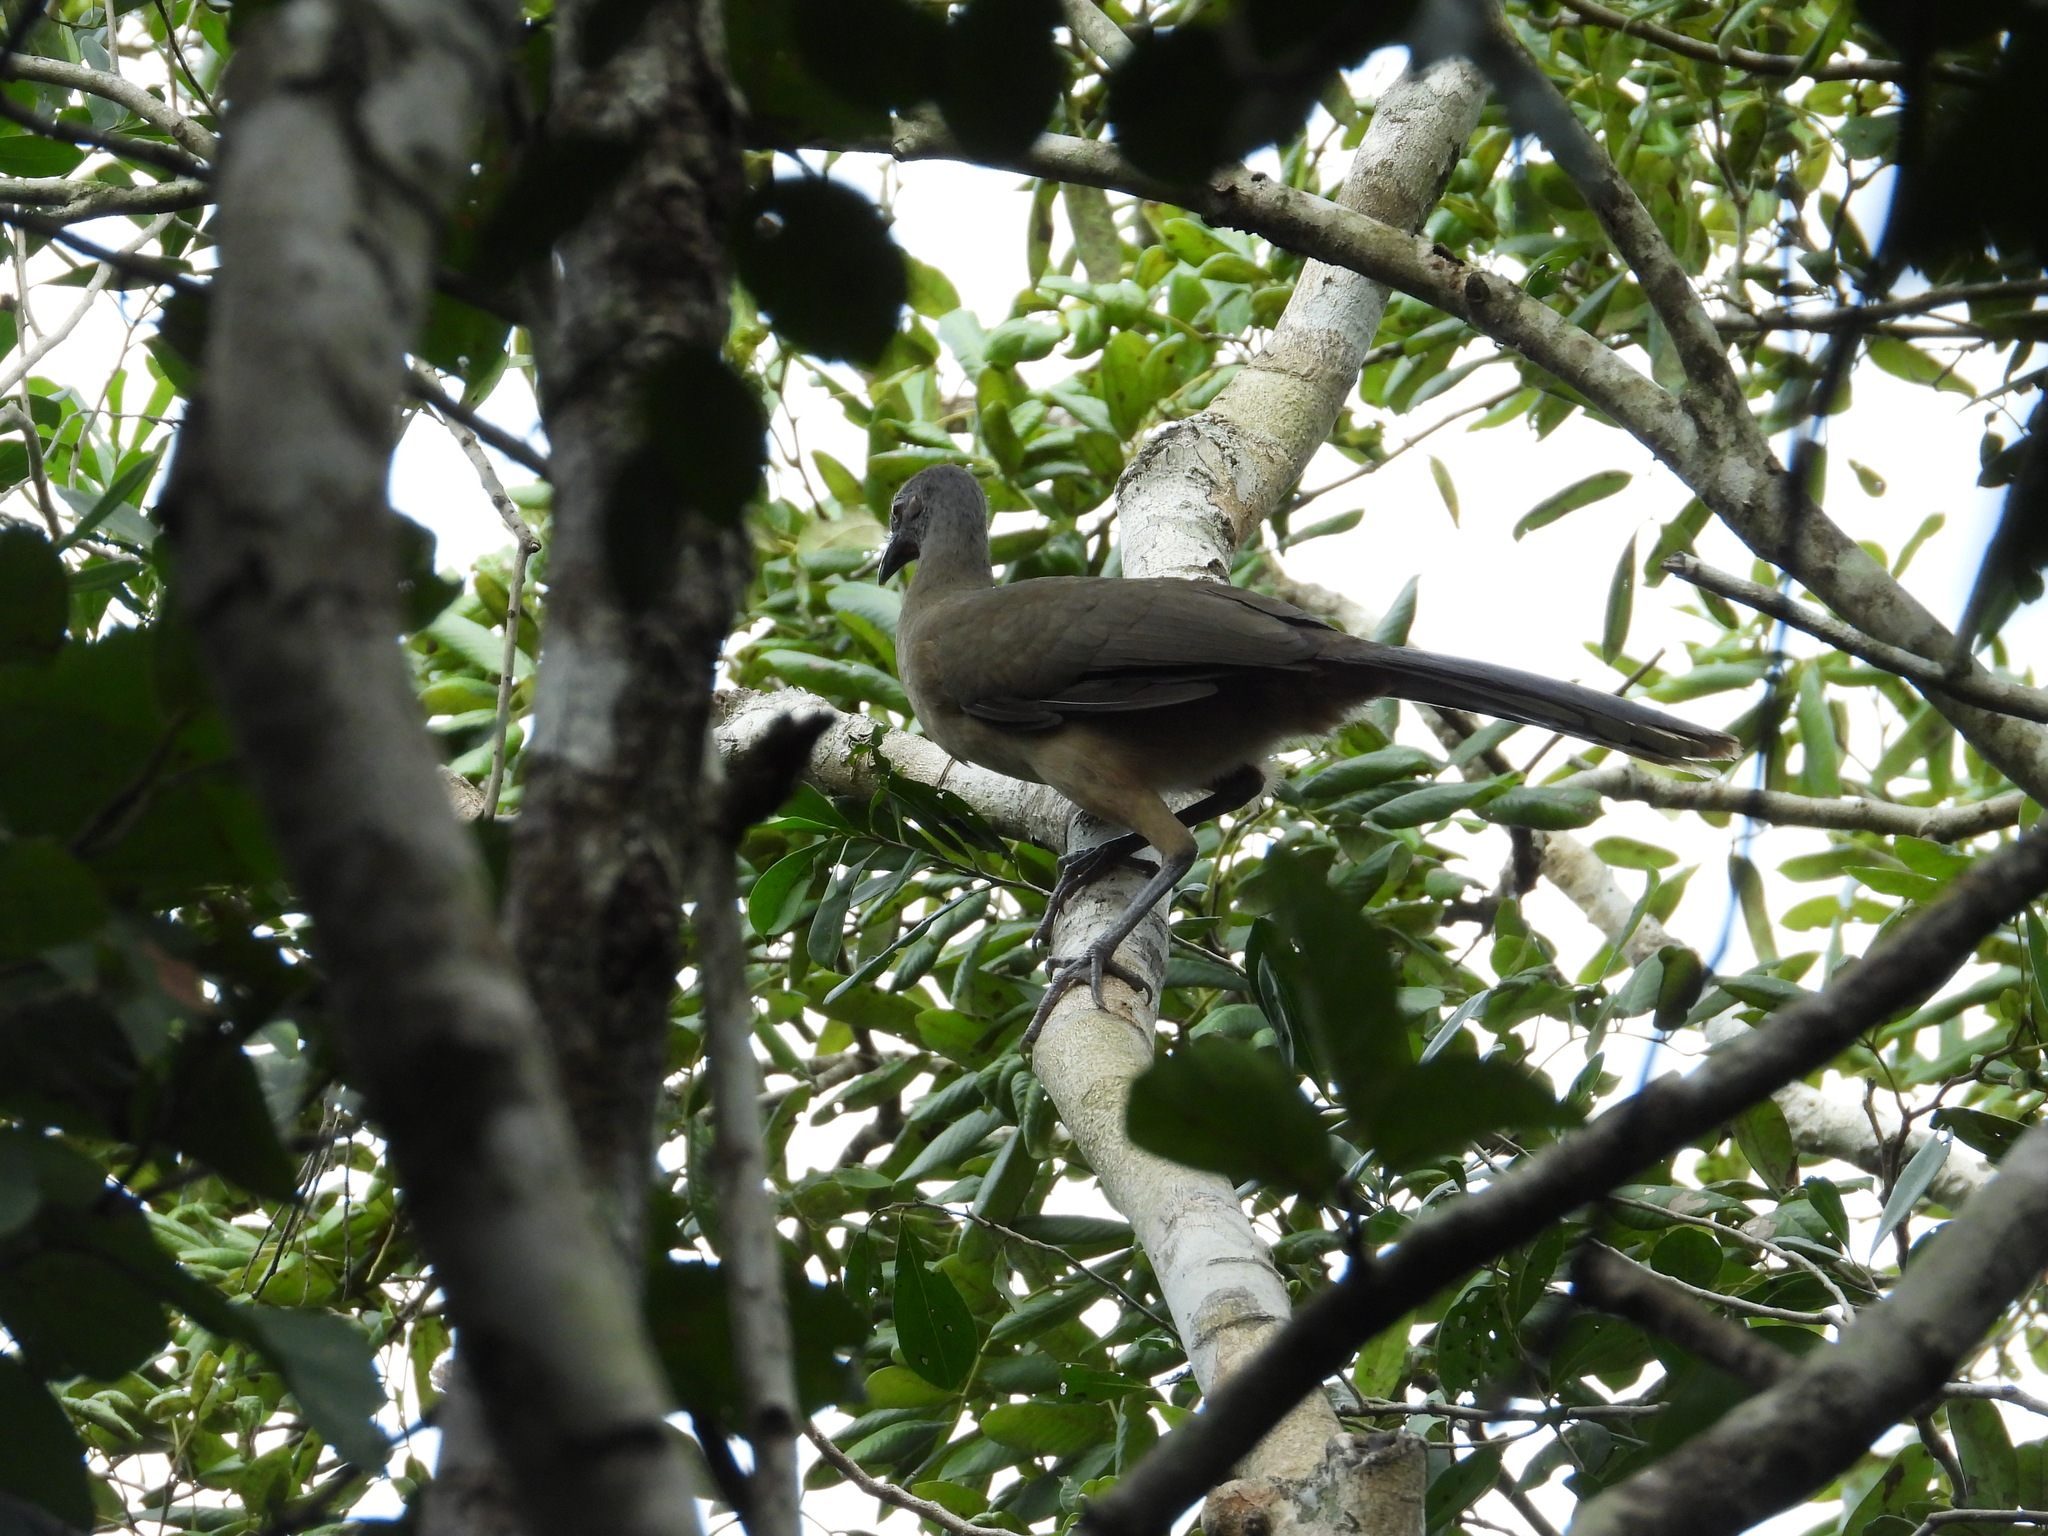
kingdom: Animalia
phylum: Chordata
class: Aves
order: Galliformes
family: Cracidae
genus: Ortalis
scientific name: Ortalis vetula
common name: Plain chachalaca
